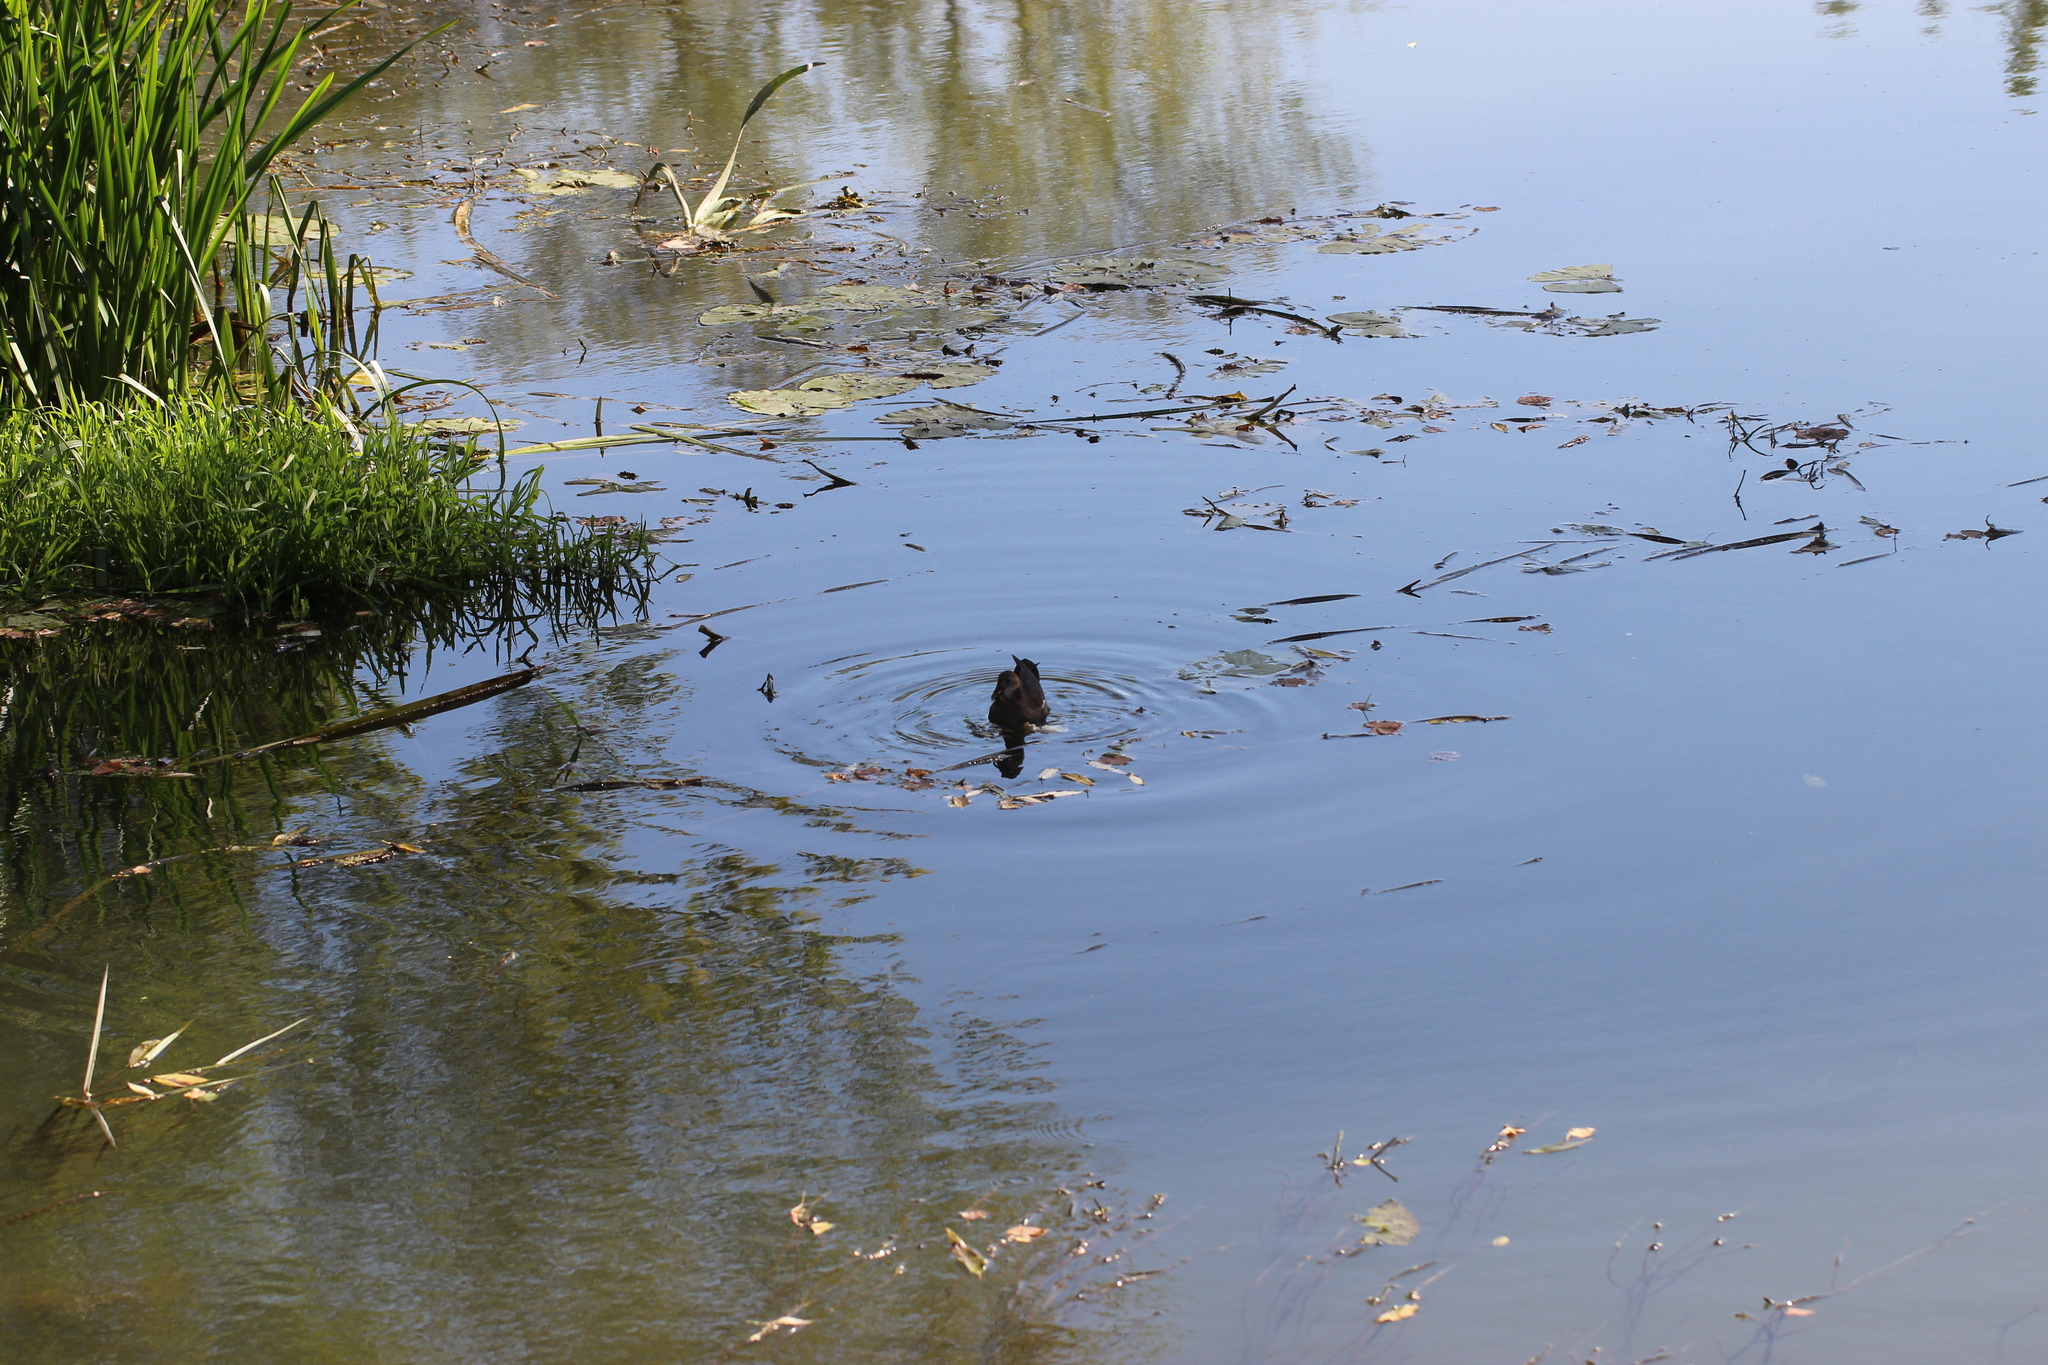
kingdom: Animalia
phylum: Chordata
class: Aves
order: Gruiformes
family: Rallidae
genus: Gallinula
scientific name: Gallinula chloropus
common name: Common moorhen
